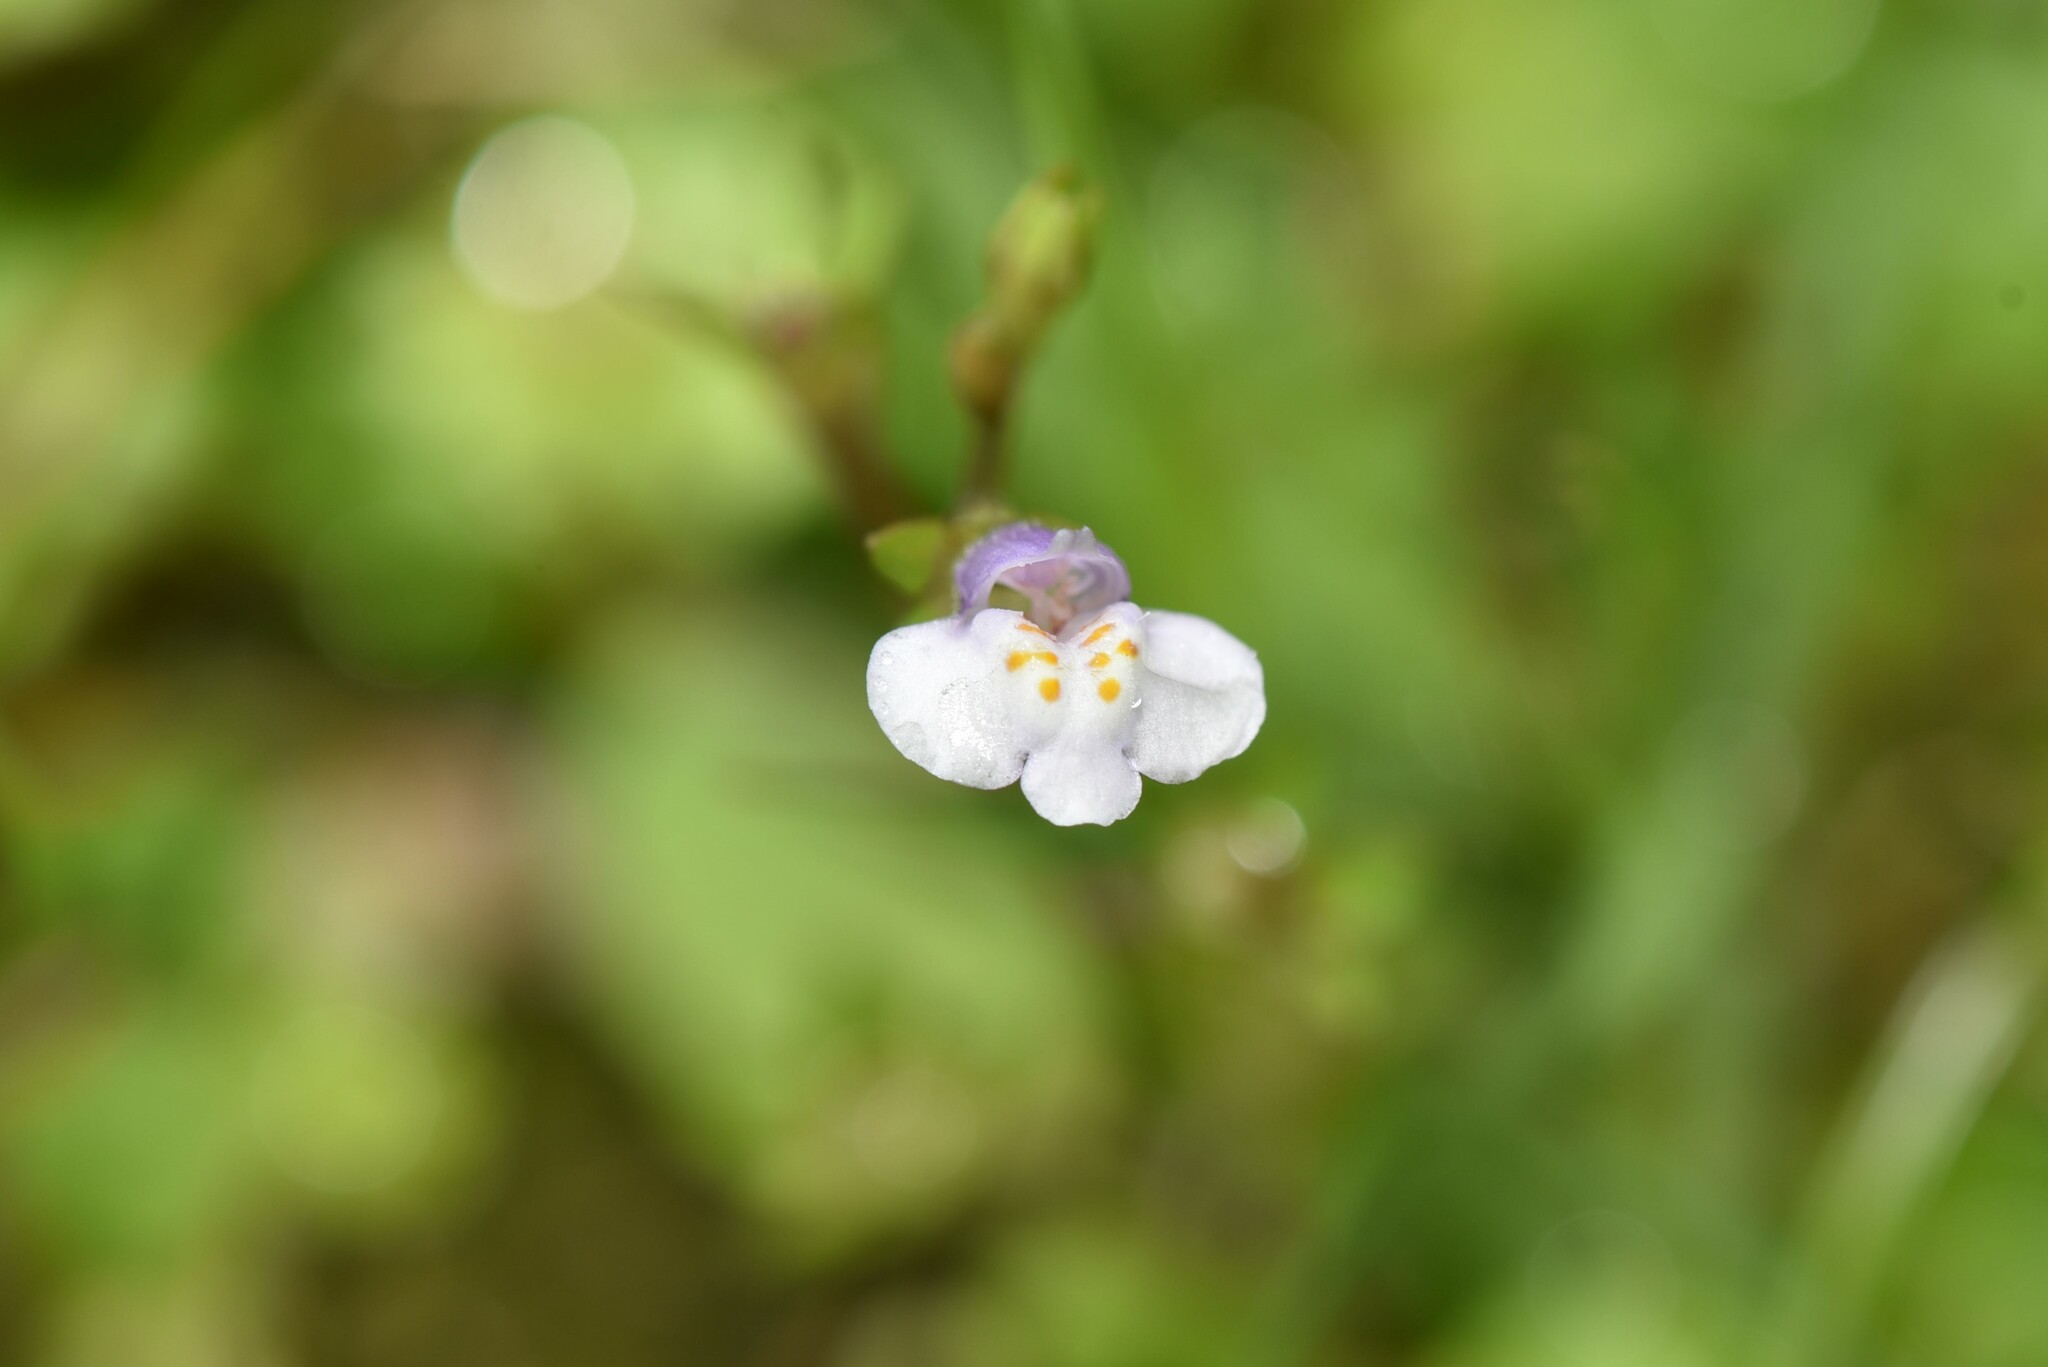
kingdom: Plantae
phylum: Tracheophyta
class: Magnoliopsida
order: Lamiales
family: Mazaceae
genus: Mazus
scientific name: Mazus pumilus
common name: Japanese mazus
